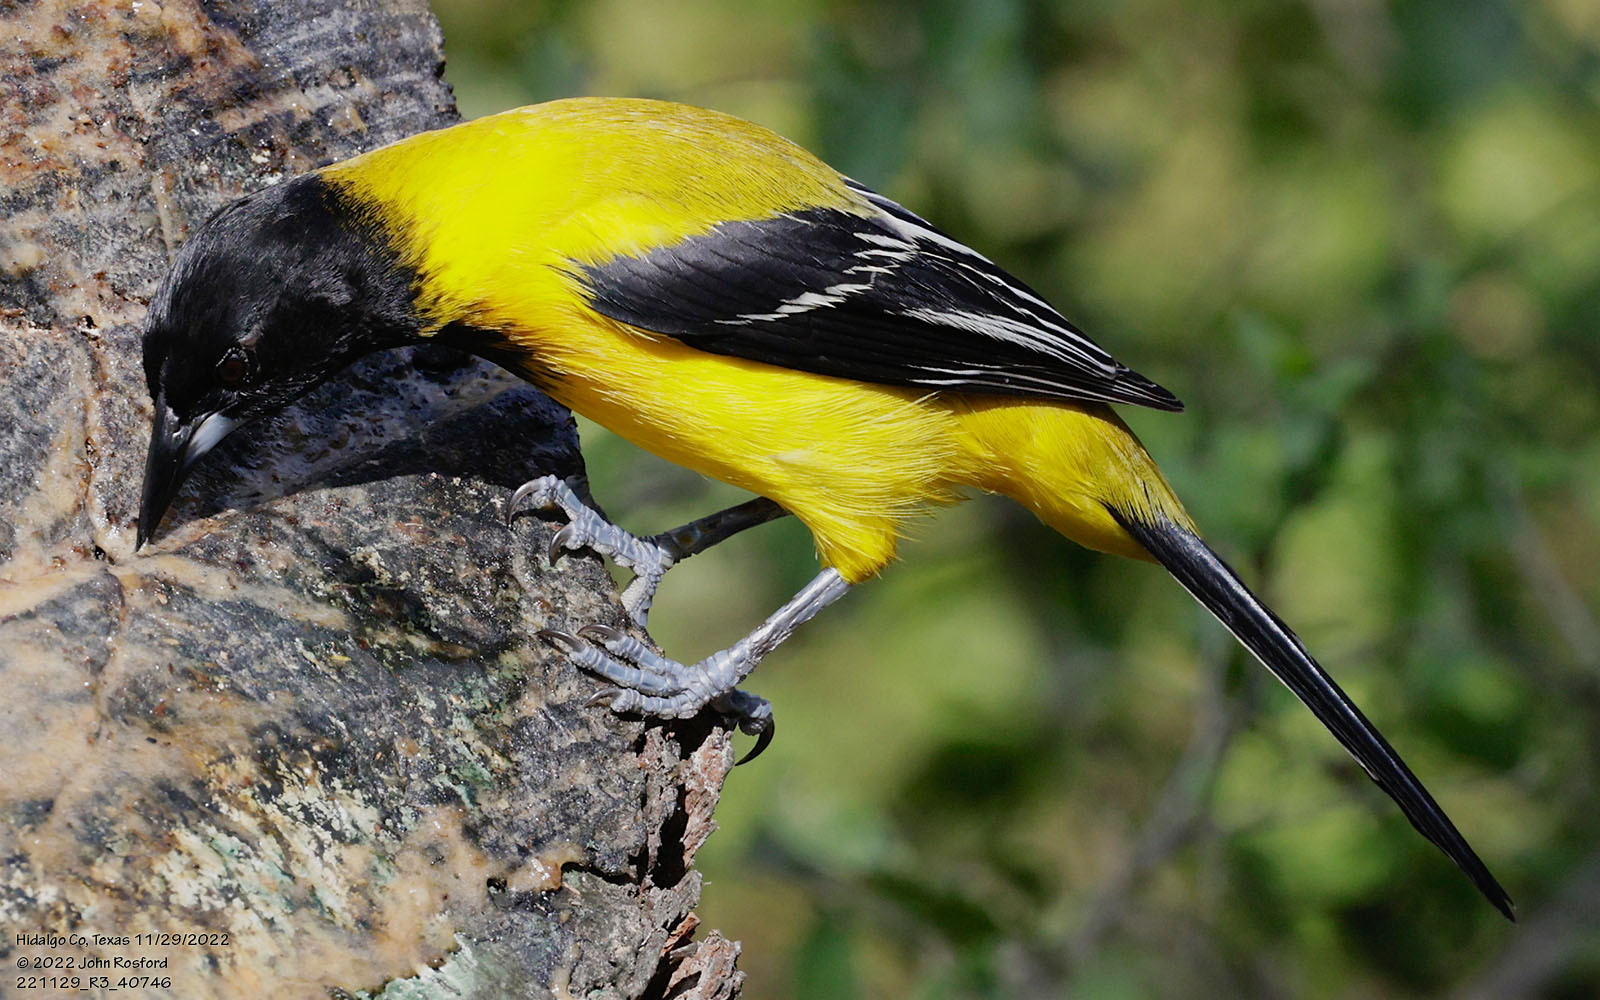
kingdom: Animalia
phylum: Chordata
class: Aves
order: Passeriformes
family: Icteridae
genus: Icterus
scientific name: Icterus graduacauda
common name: Audubon's oriole
